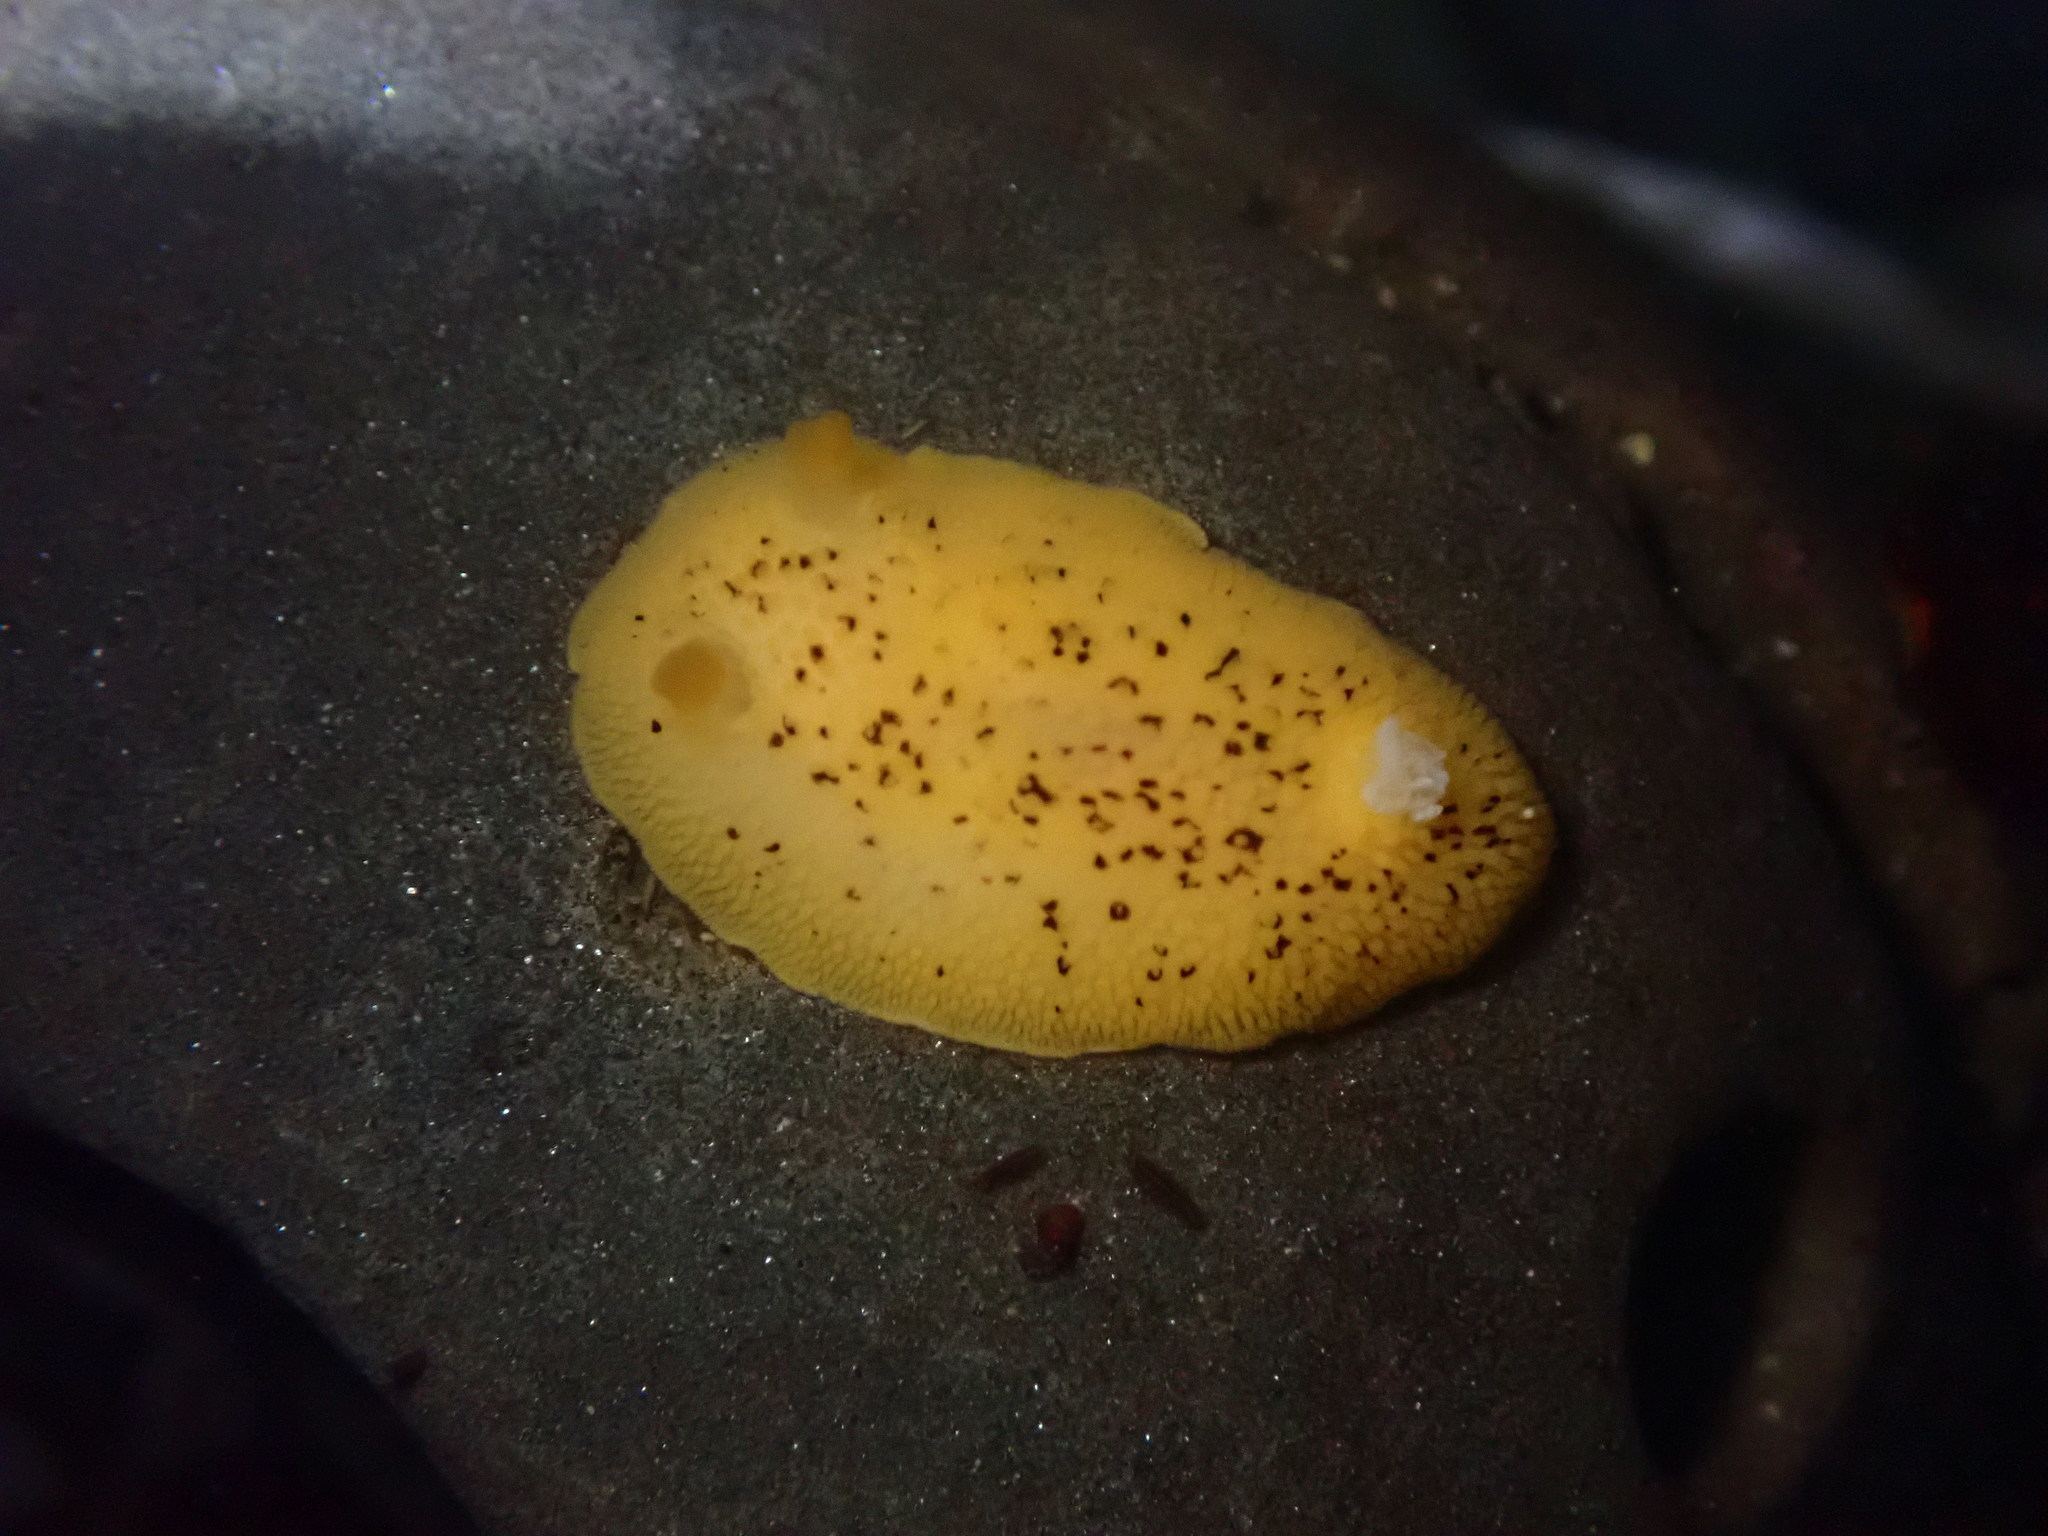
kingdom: Animalia
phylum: Mollusca
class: Gastropoda
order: Nudibranchia
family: Discodorididae
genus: Peltodoris
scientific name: Peltodoris nobilis
